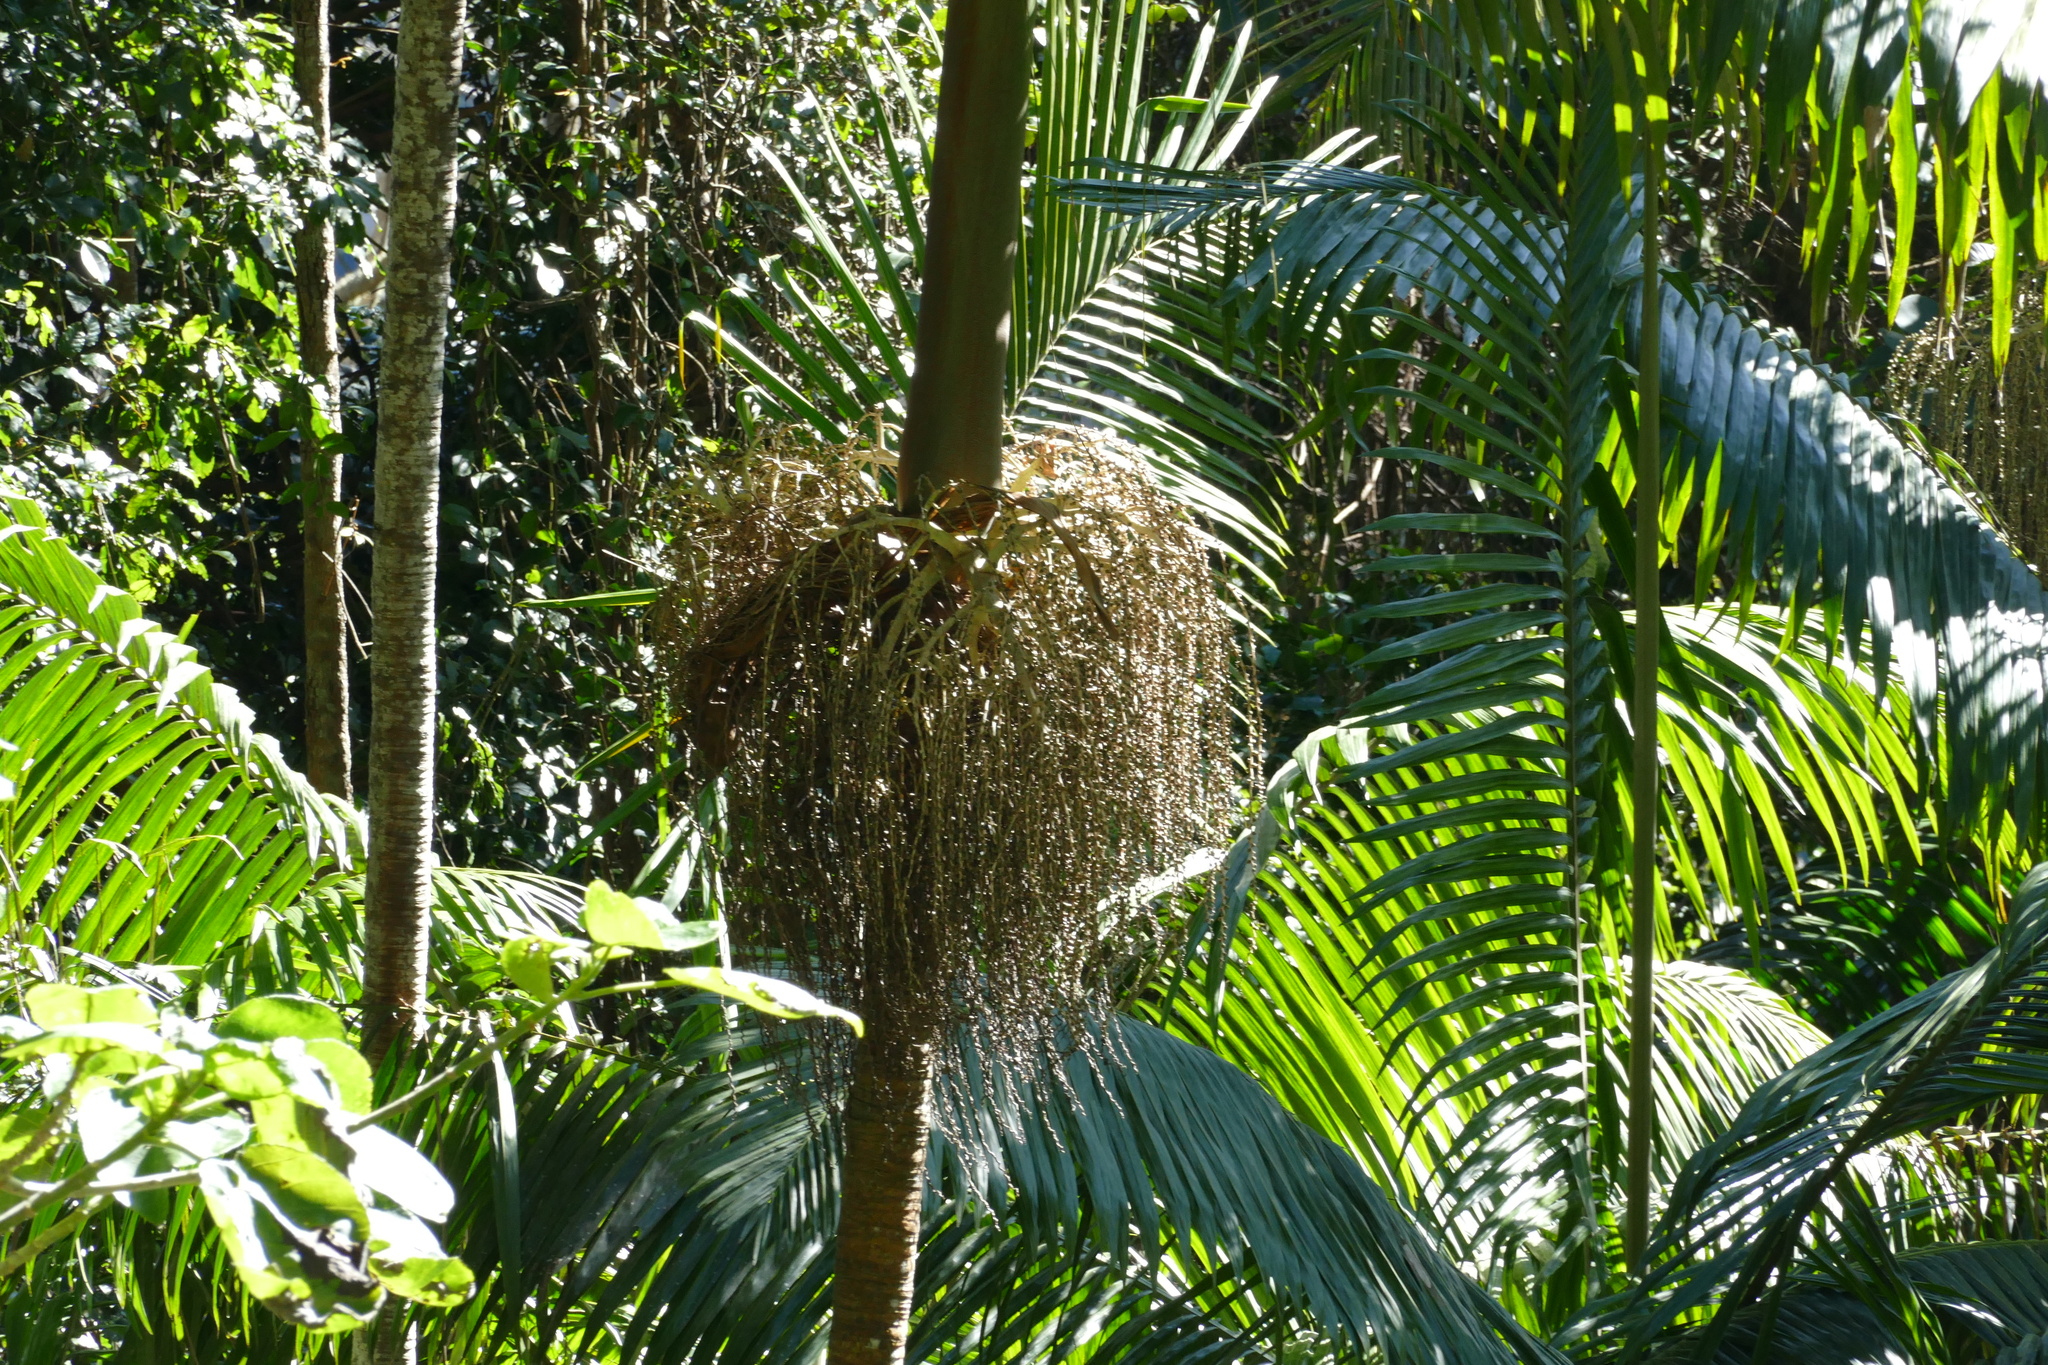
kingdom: Plantae
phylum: Tracheophyta
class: Liliopsida
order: Arecales
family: Arecaceae
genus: Archontophoenix
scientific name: Archontophoenix cunninghamiana
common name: Piccabeen bangalow palm
